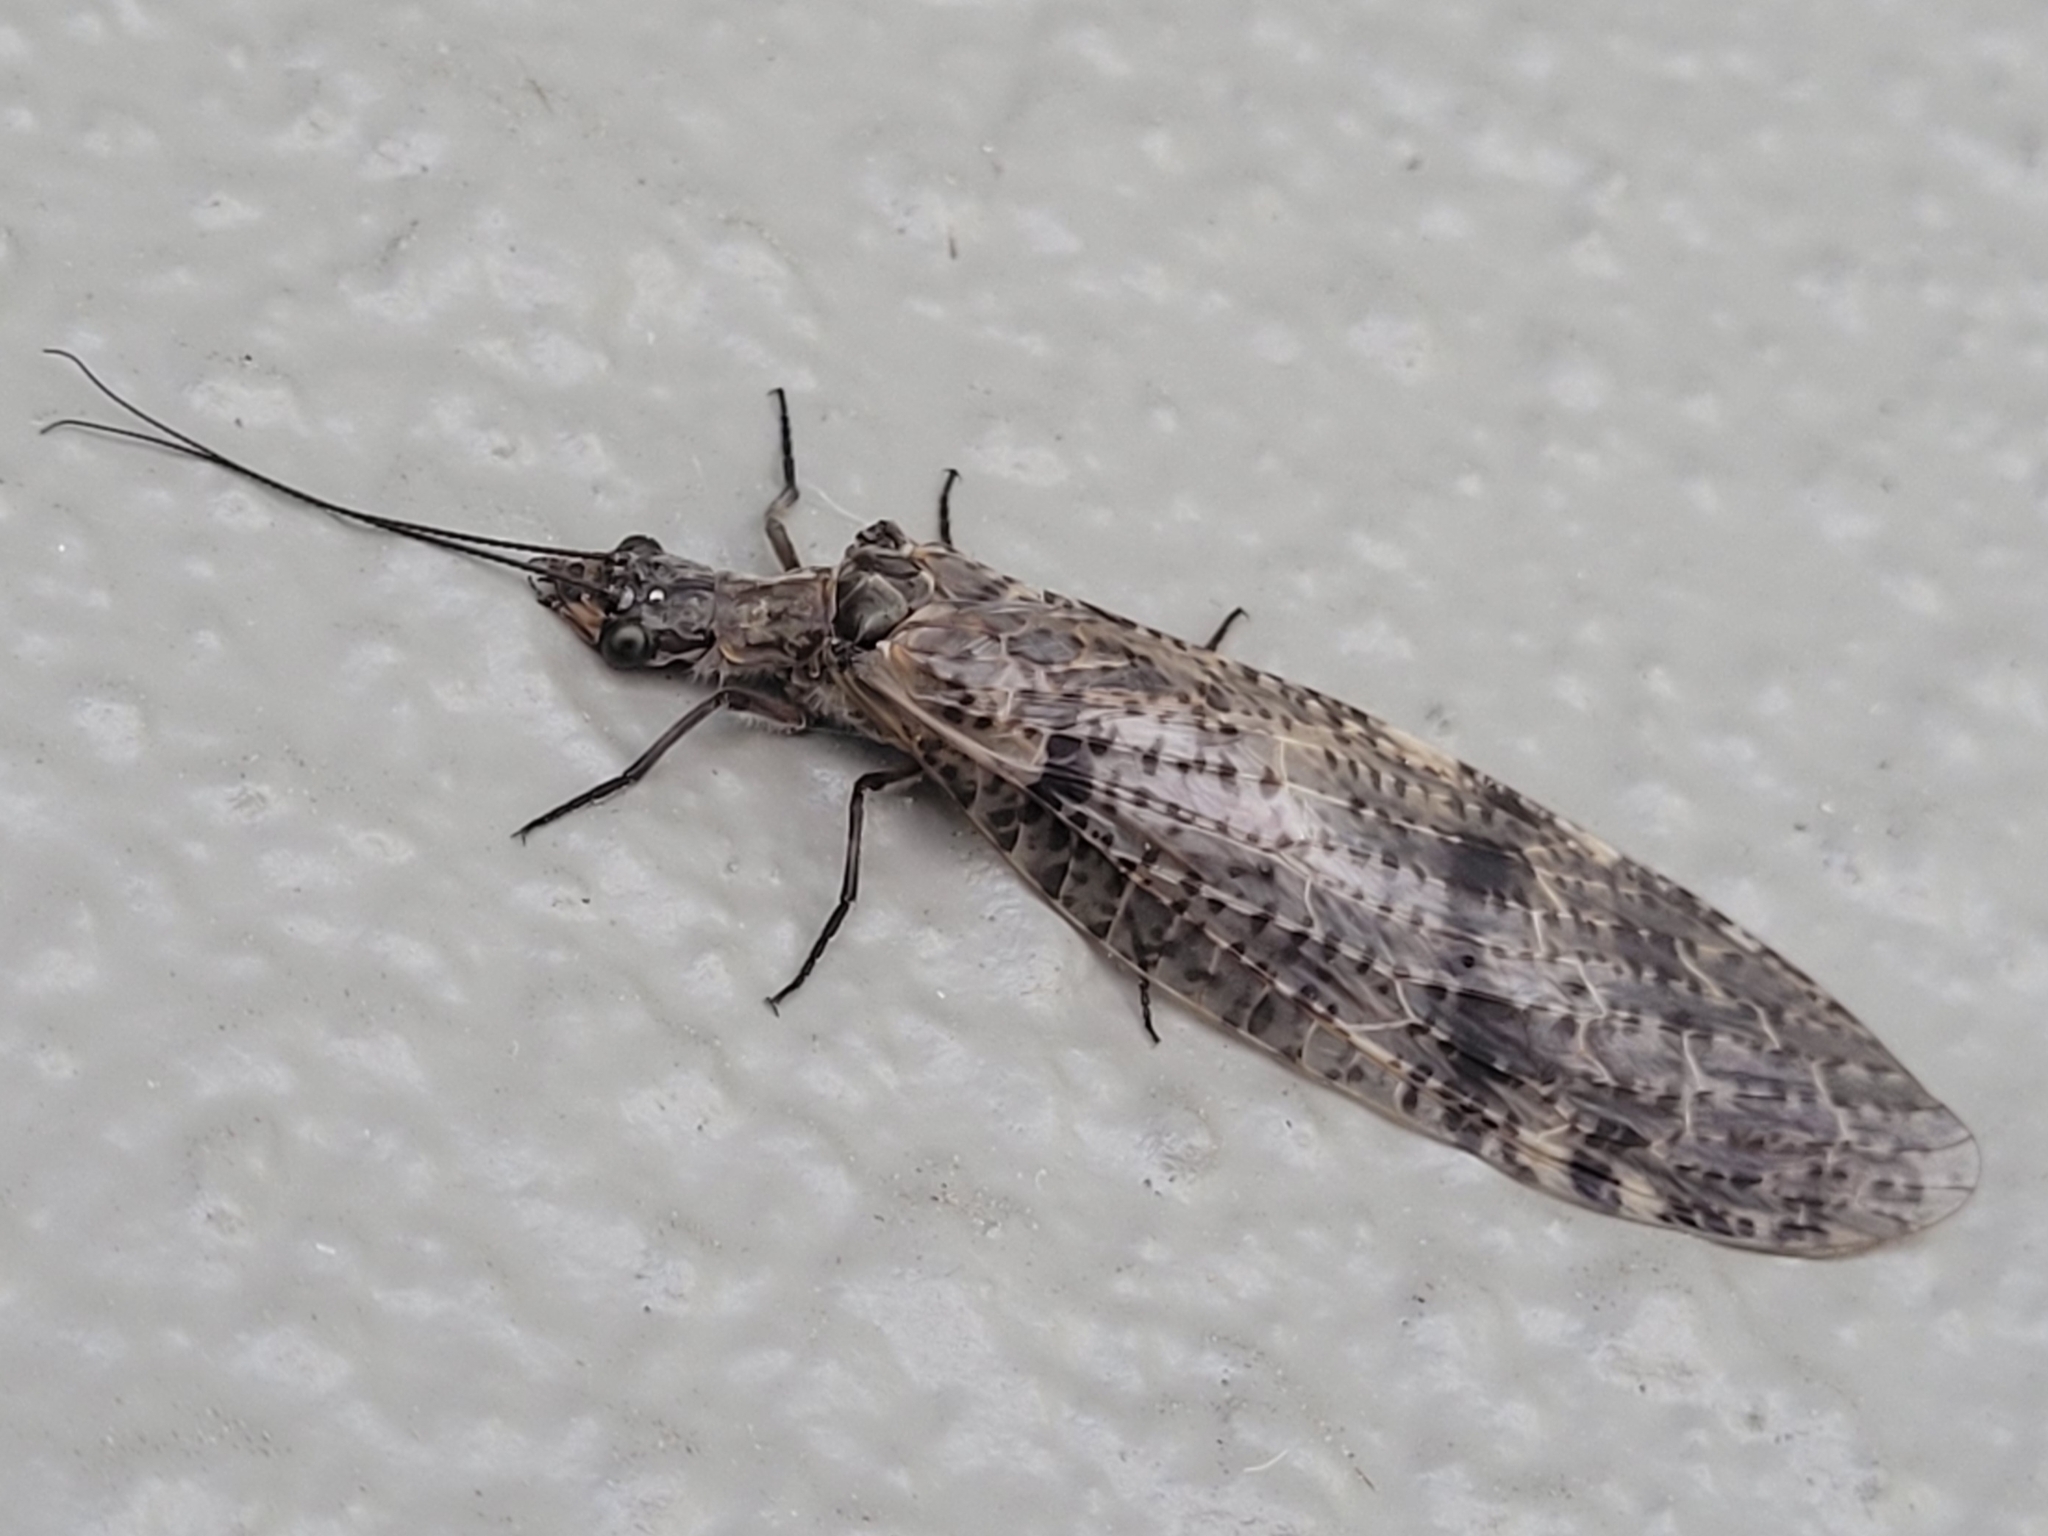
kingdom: Animalia
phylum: Arthropoda
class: Insecta
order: Megaloptera
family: Corydalidae
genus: Archichauliodes
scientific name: Archichauliodes diversus
